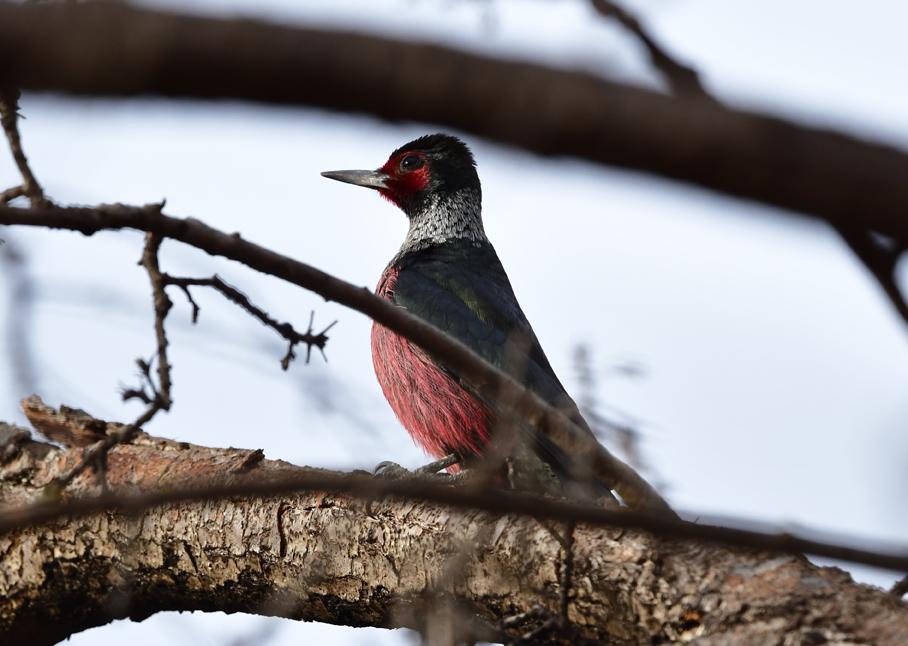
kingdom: Animalia
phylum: Chordata
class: Aves
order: Piciformes
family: Picidae
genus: Melanerpes
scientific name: Melanerpes lewis
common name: Lewis's woodpecker
